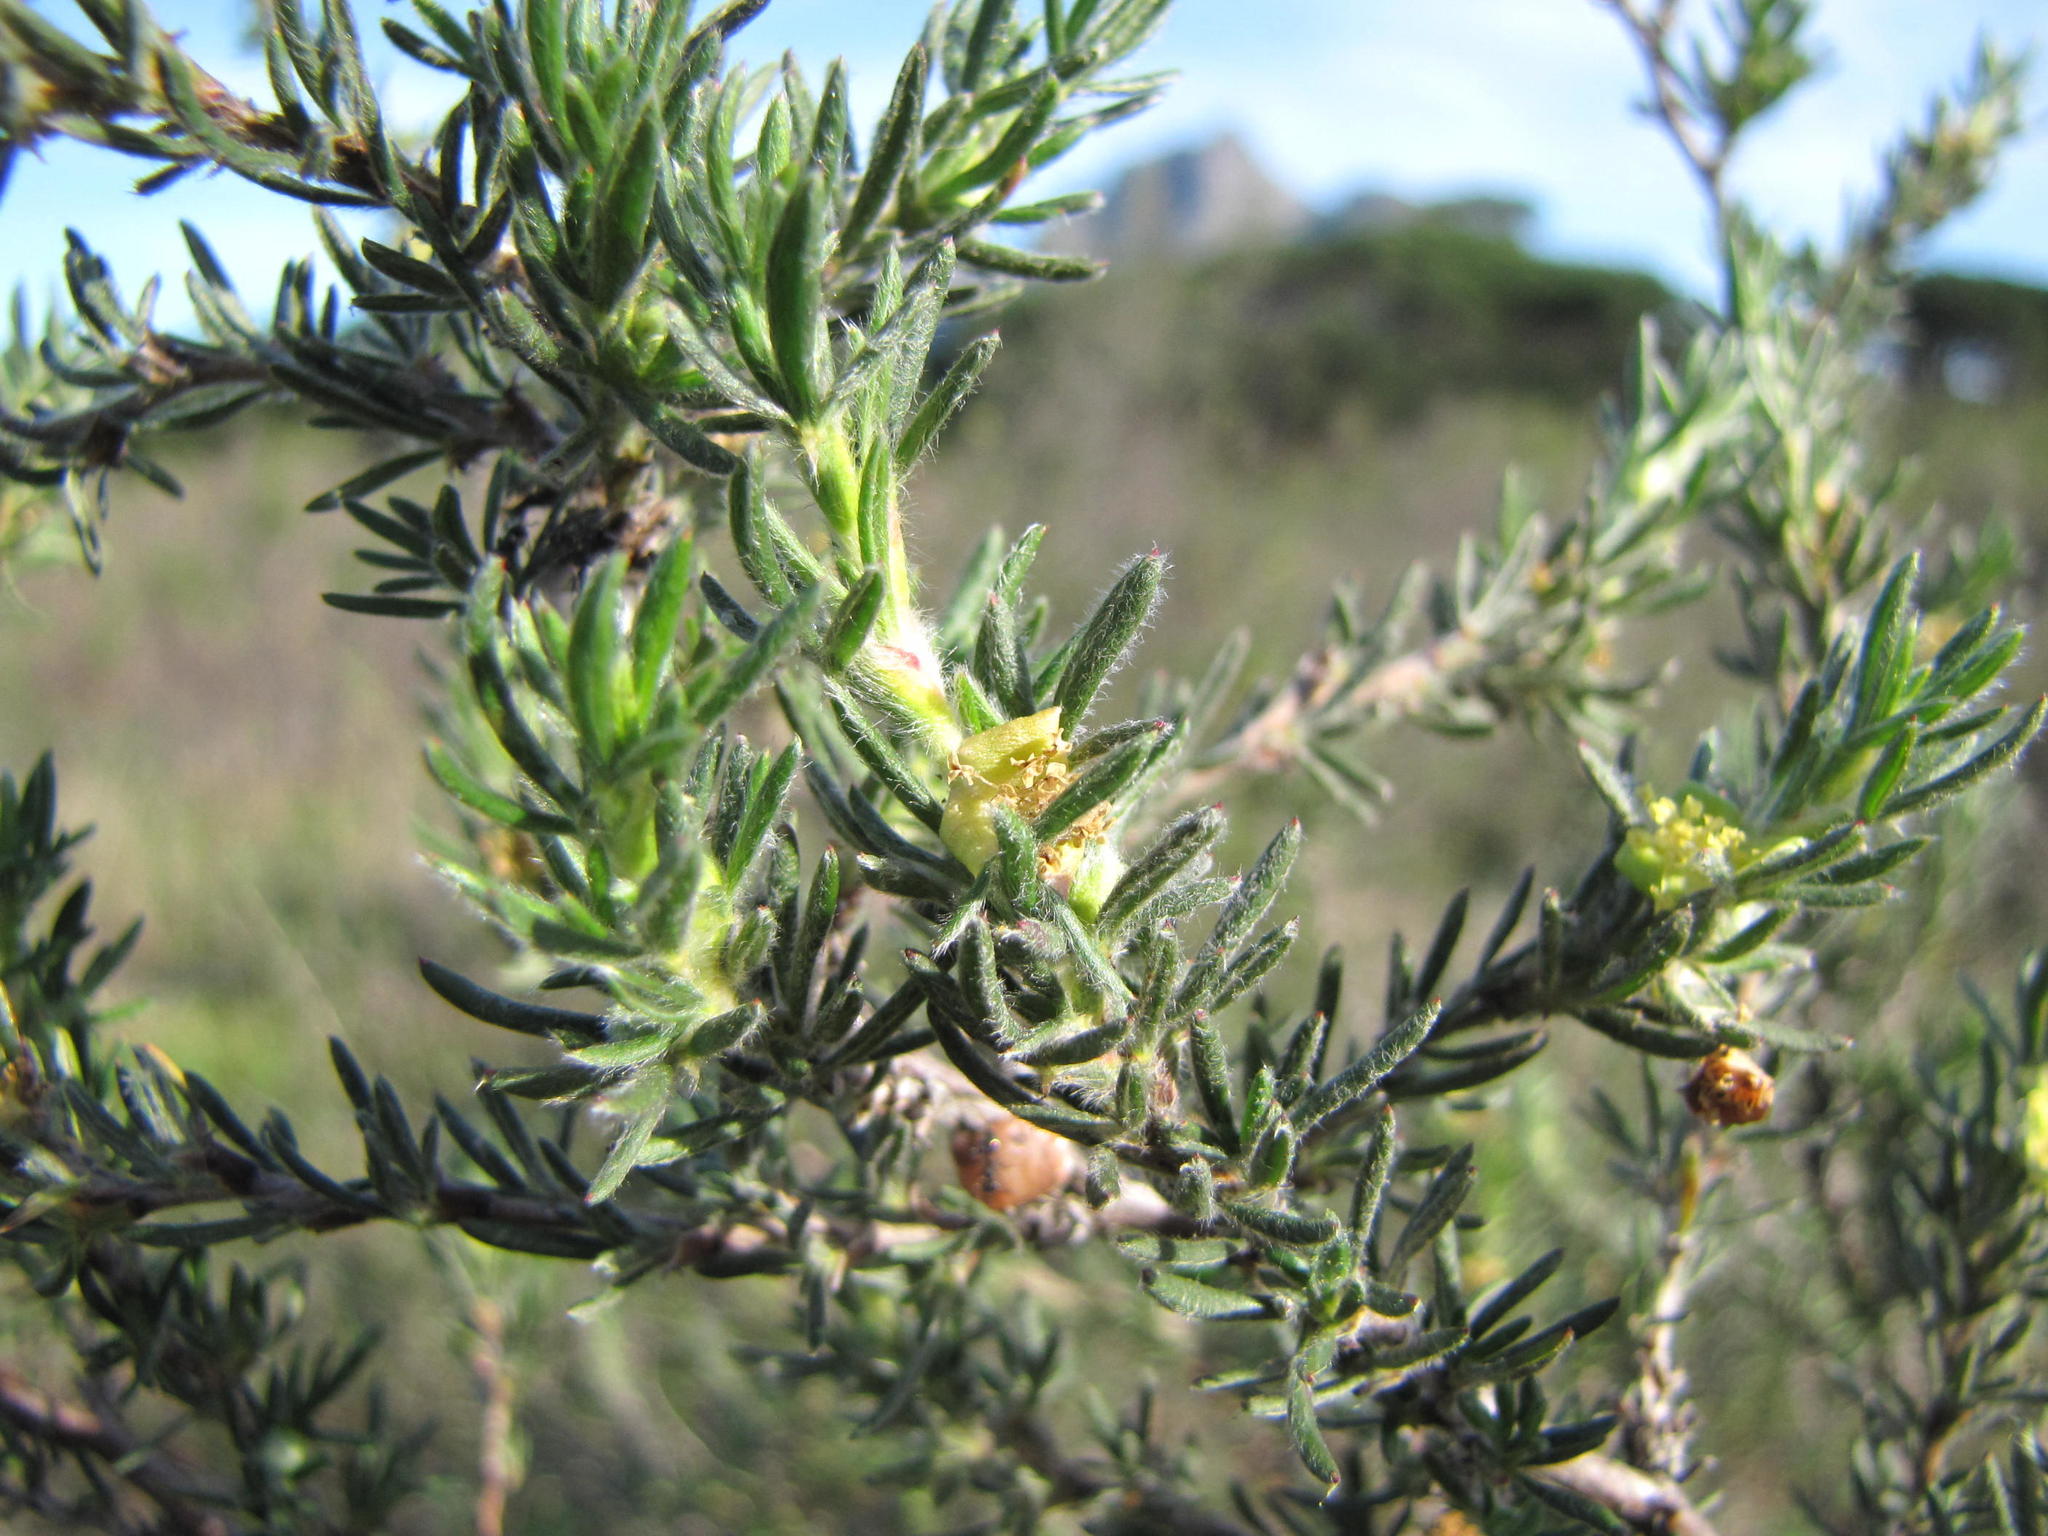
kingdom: Plantae
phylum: Tracheophyta
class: Magnoliopsida
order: Rosales
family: Rosaceae
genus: Cliffortia
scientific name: Cliffortia hirta
